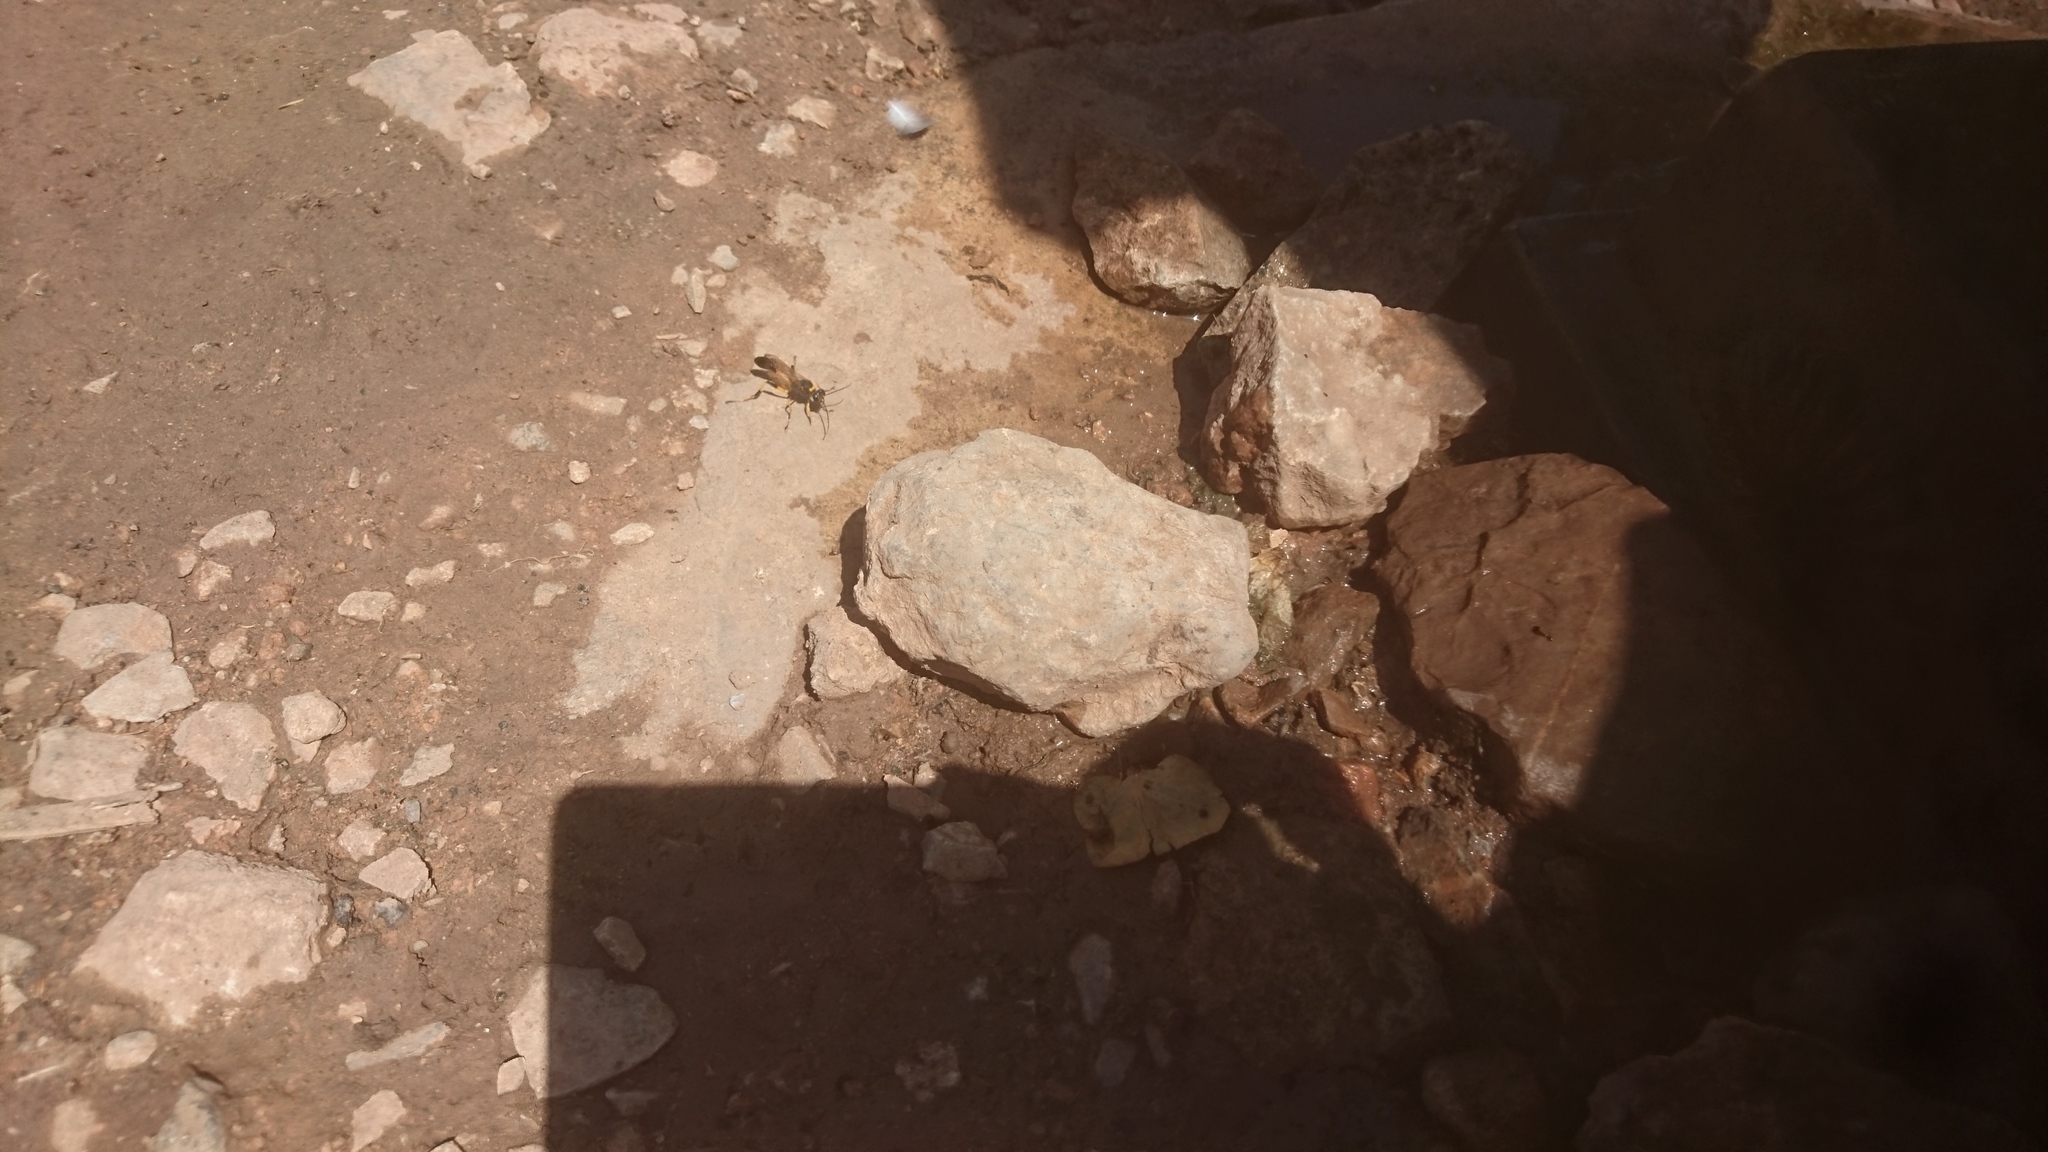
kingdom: Animalia
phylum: Arthropoda
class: Insecta
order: Hymenoptera
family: Sphecidae
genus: Sceliphron
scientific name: Sceliphron destillatorium
